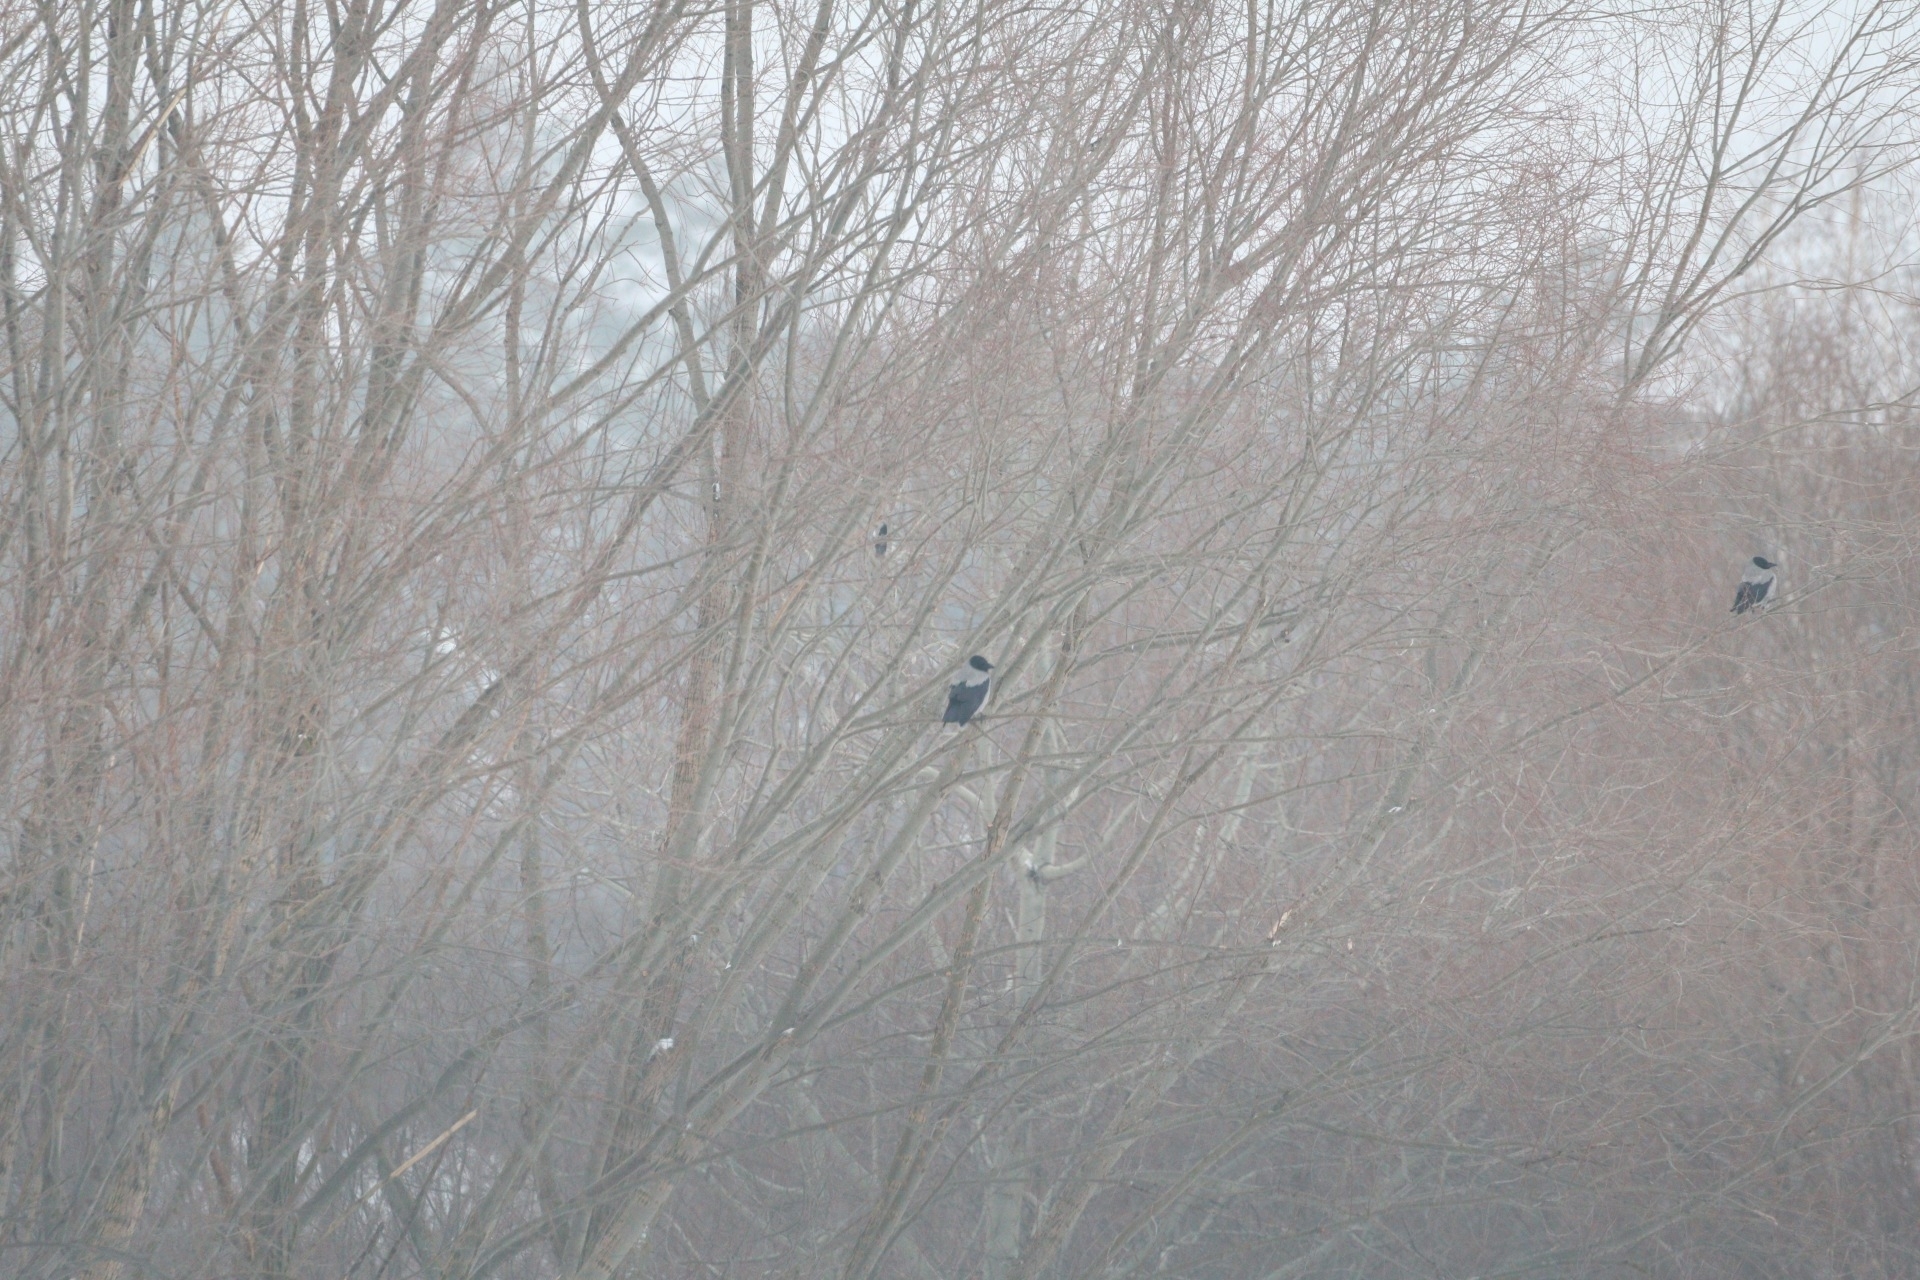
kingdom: Animalia
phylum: Chordata
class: Aves
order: Passeriformes
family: Corvidae
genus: Corvus
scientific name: Corvus cornix
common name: Hooded crow
